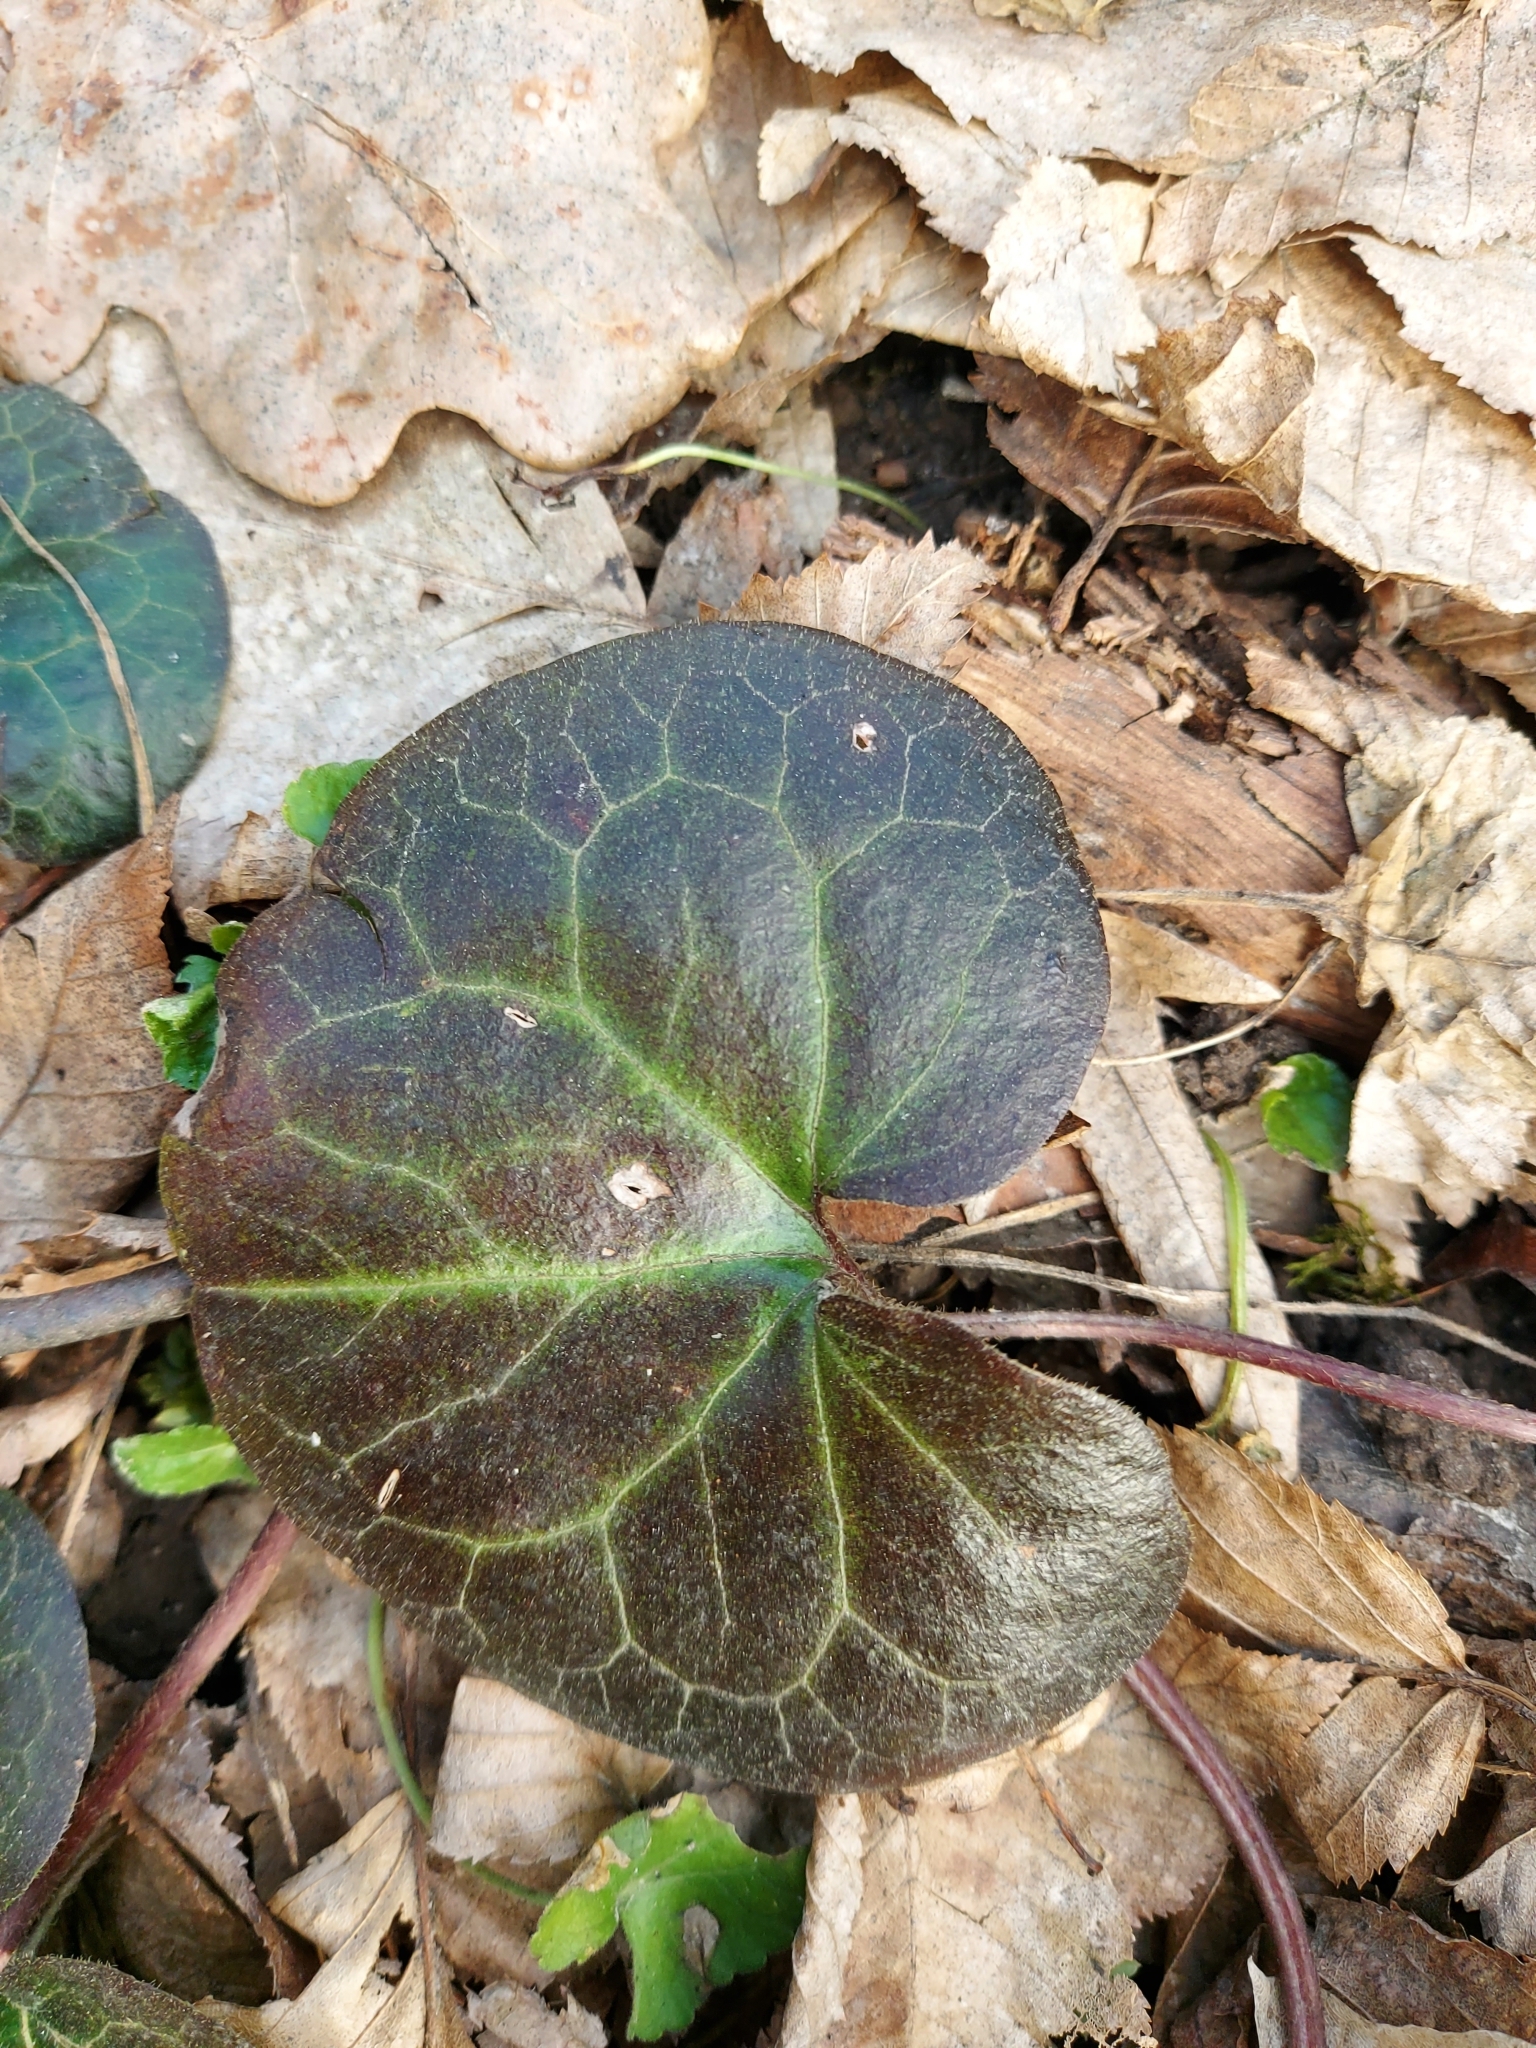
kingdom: Plantae
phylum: Tracheophyta
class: Magnoliopsida
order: Piperales
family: Aristolochiaceae
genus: Asarum
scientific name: Asarum europaeum
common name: Asarabacca
